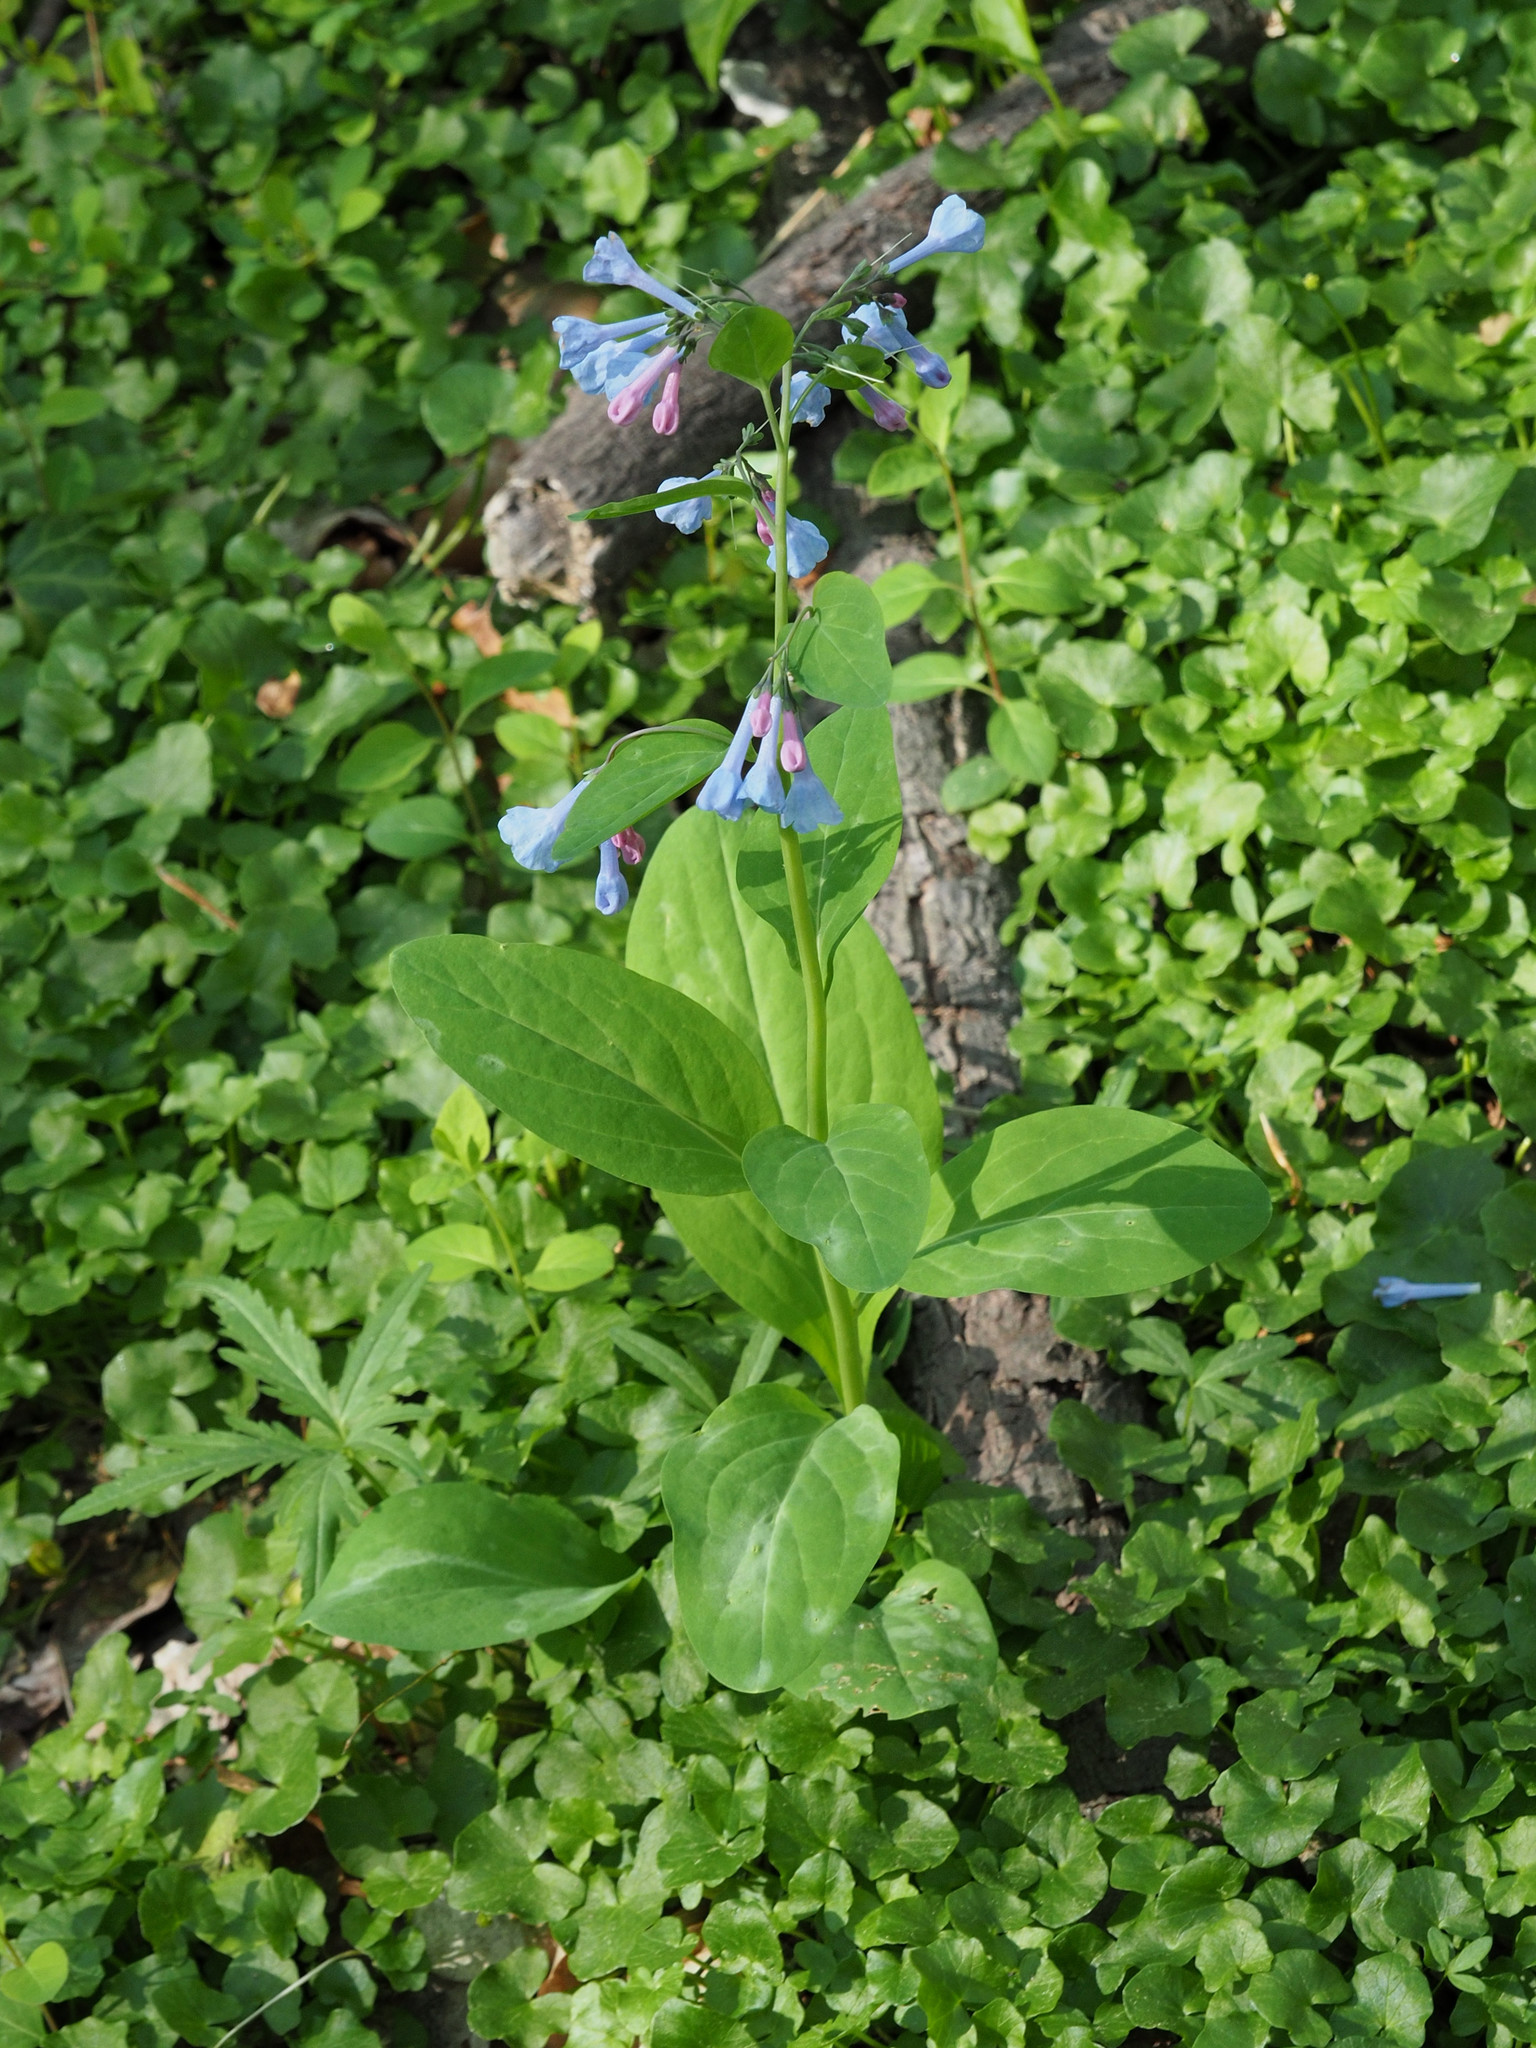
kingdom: Plantae
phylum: Tracheophyta
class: Magnoliopsida
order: Boraginales
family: Boraginaceae
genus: Mertensia
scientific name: Mertensia virginica
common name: Virginia bluebells
